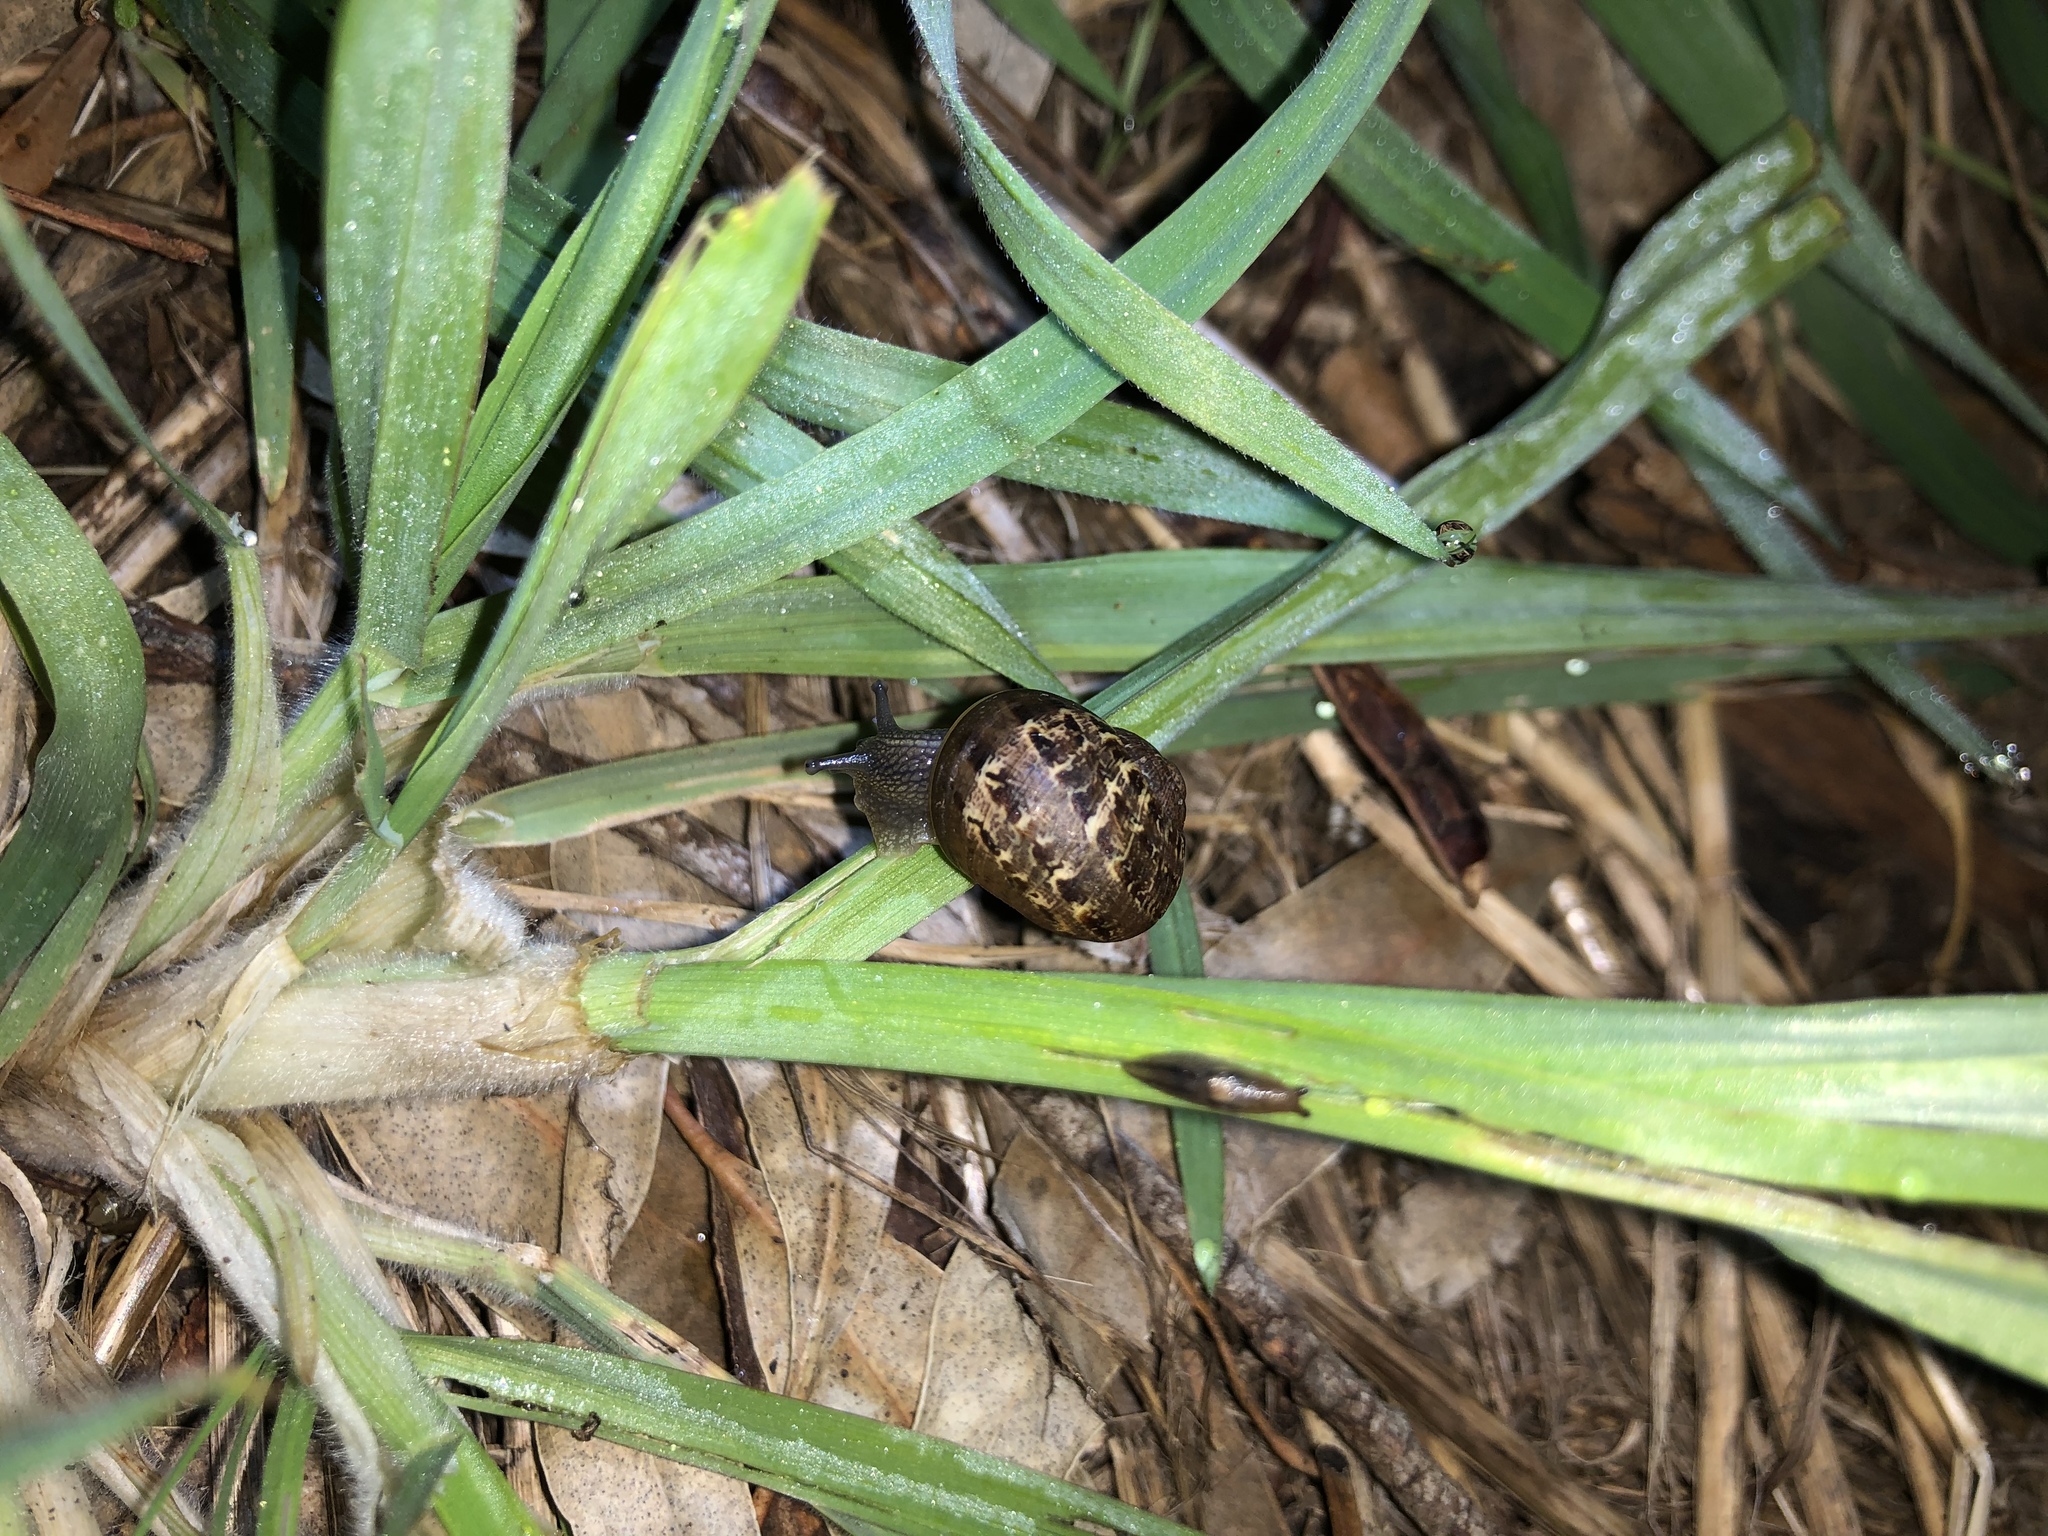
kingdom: Animalia
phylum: Mollusca
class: Gastropoda
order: Stylommatophora
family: Helicidae
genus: Cornu
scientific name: Cornu aspersum
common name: Brown garden snail
